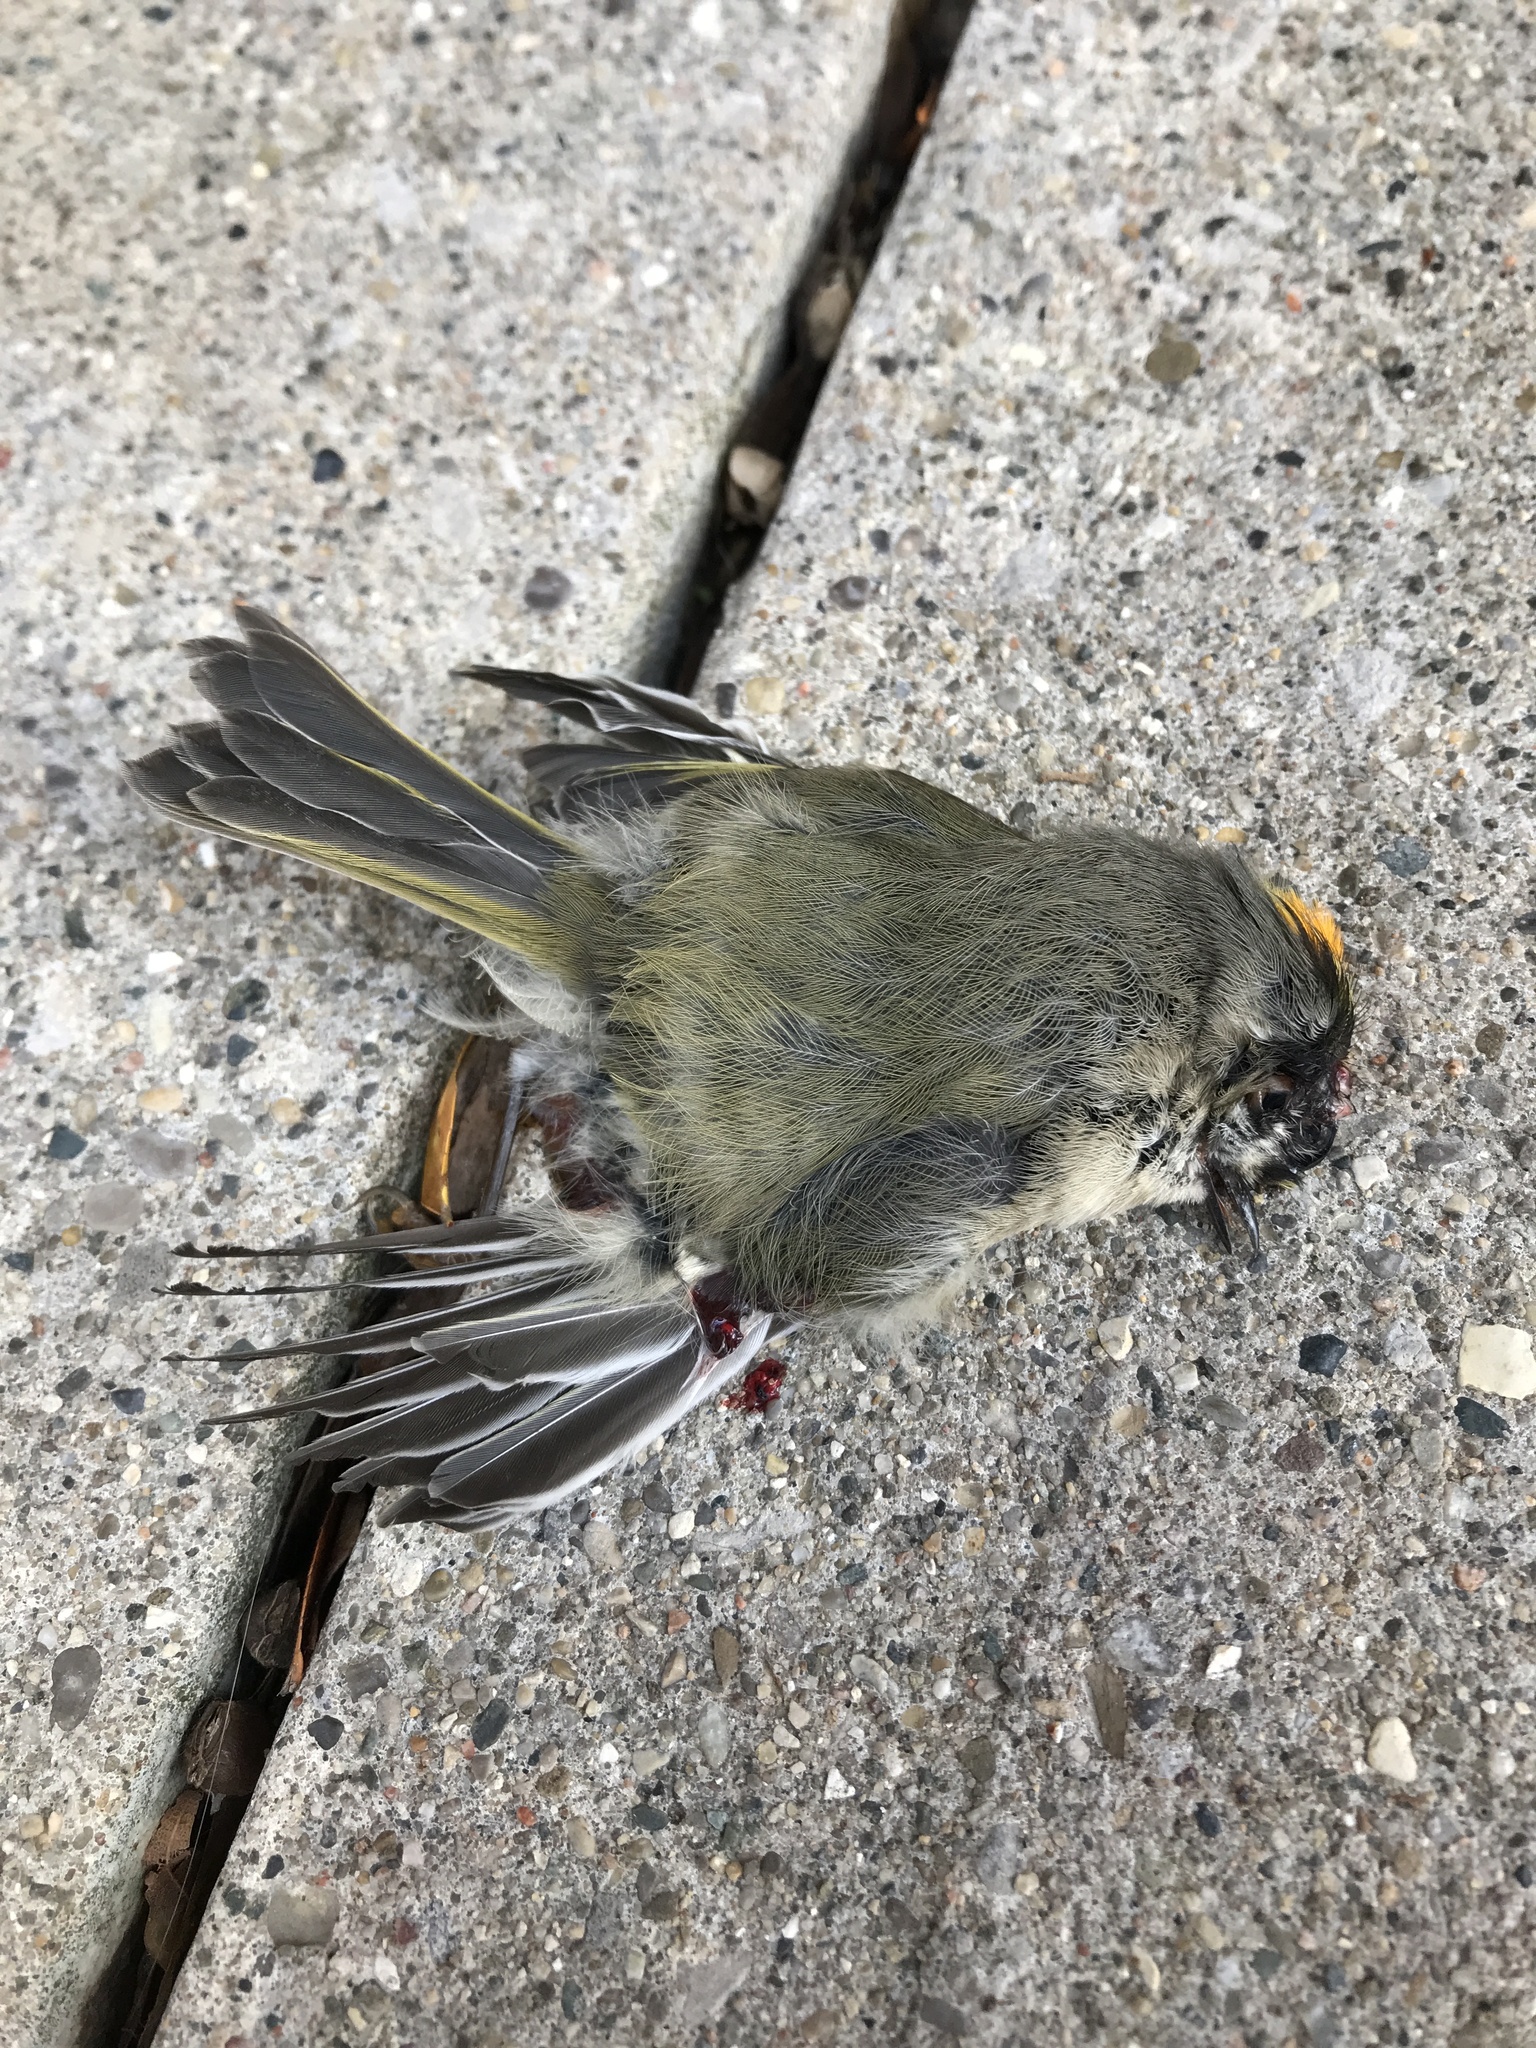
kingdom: Animalia
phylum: Chordata
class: Aves
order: Passeriformes
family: Regulidae
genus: Regulus
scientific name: Regulus satrapa
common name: Golden-crowned kinglet
